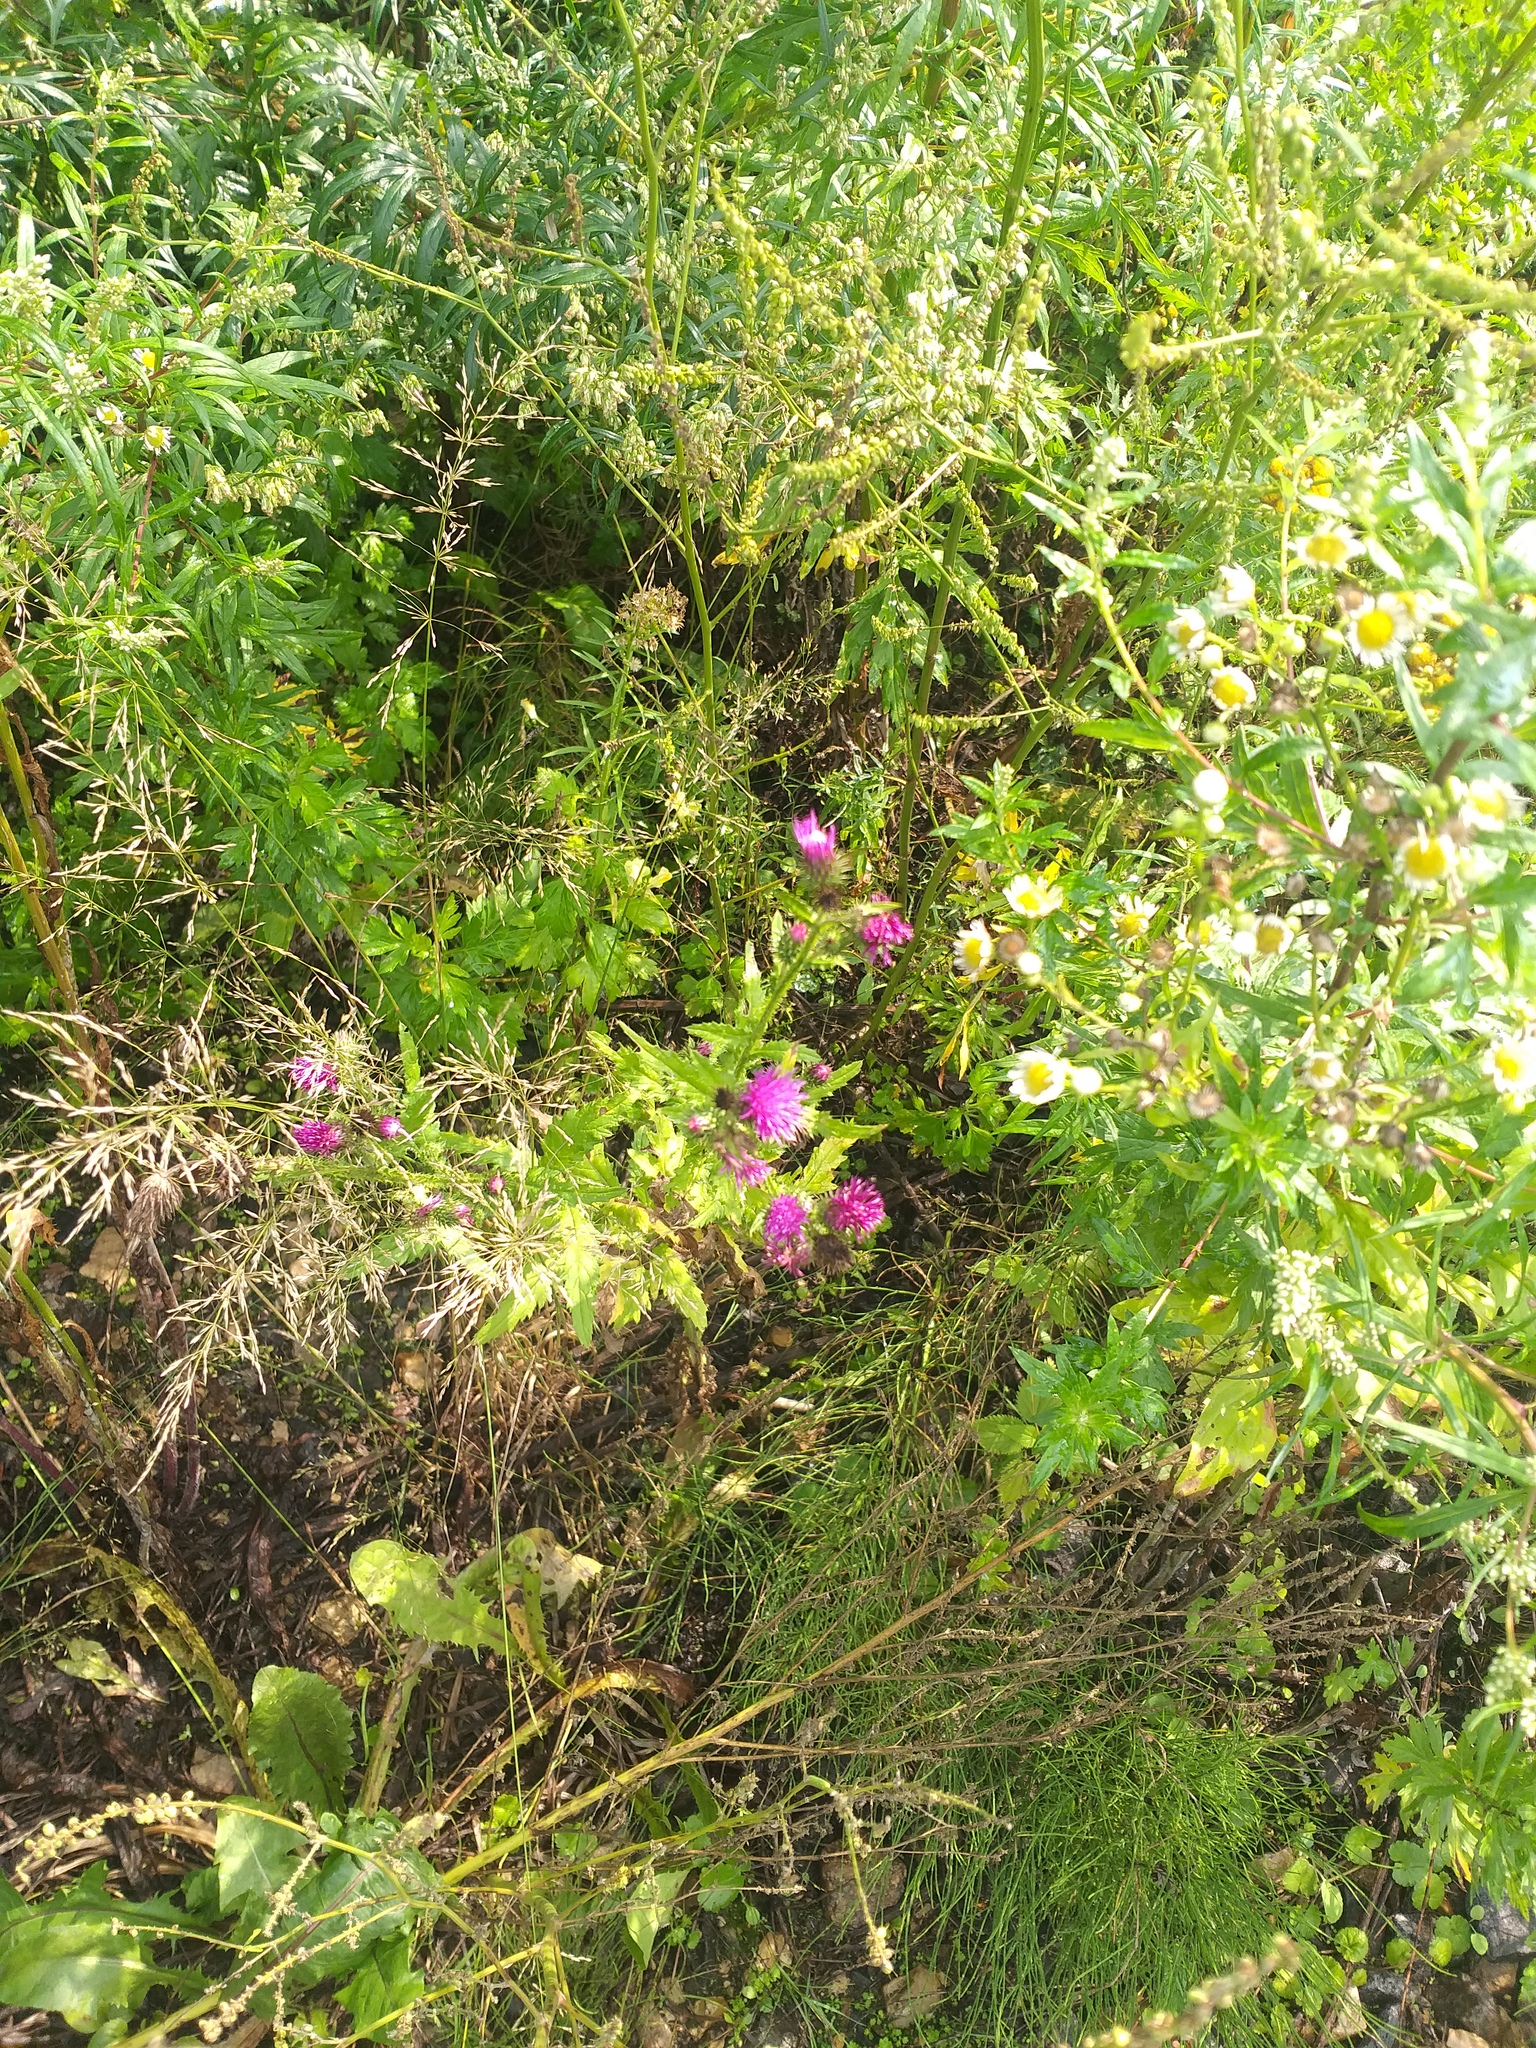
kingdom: Plantae
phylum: Tracheophyta
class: Magnoliopsida
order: Asterales
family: Asteraceae
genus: Carduus
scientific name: Carduus crispus
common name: Welted thistle
